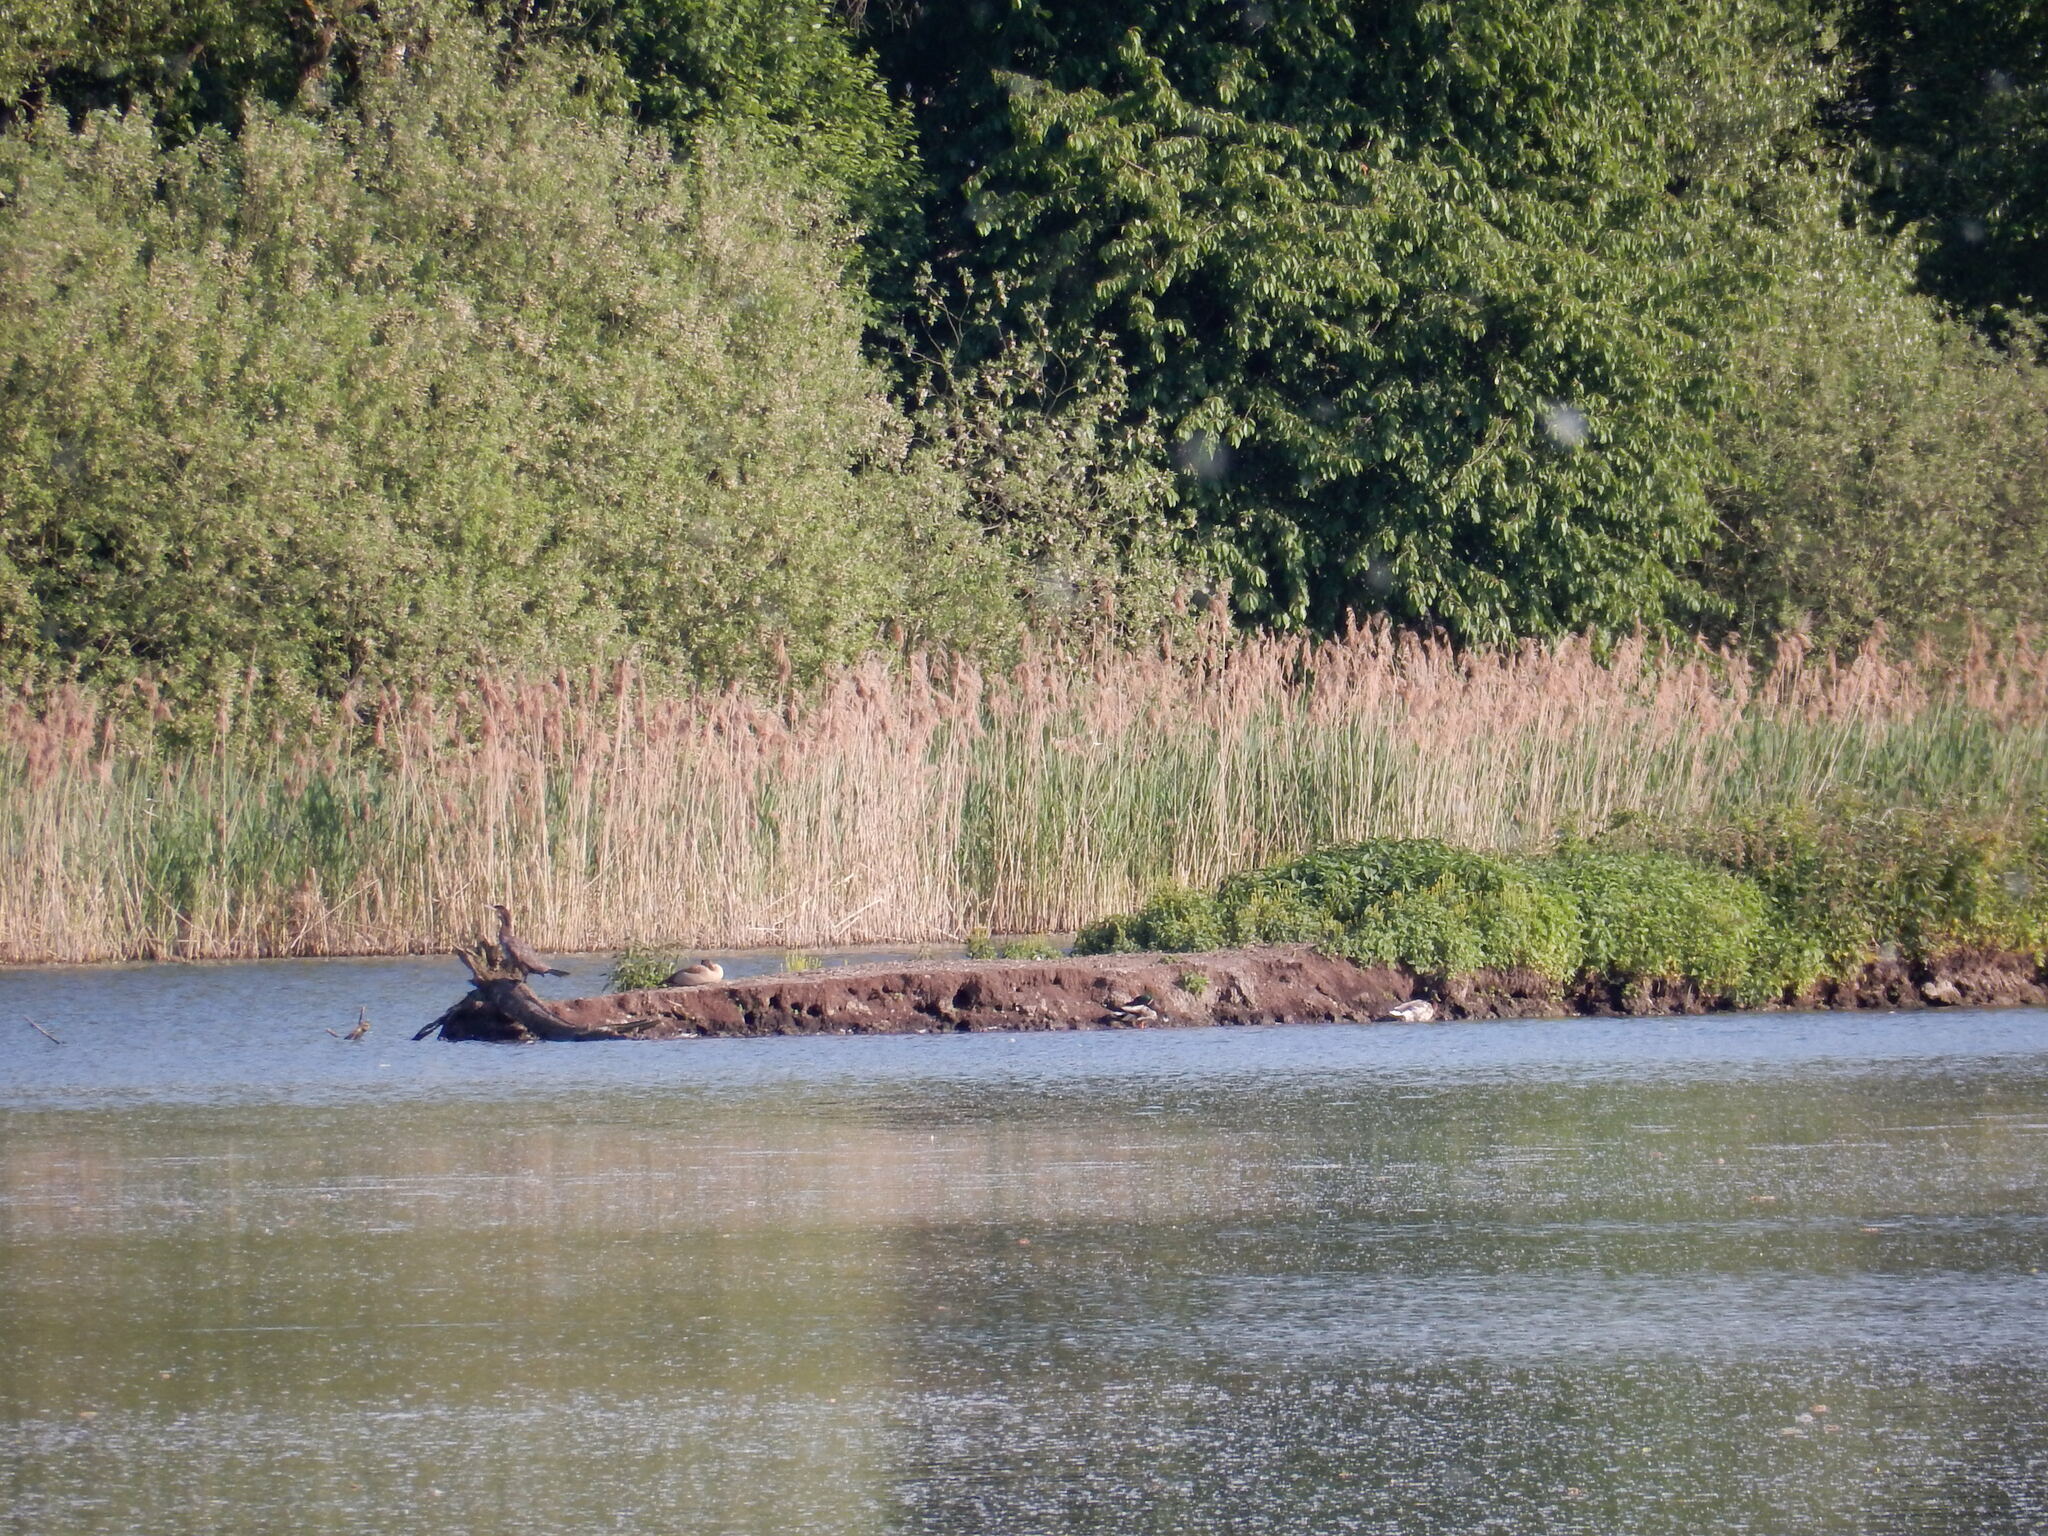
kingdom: Animalia
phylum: Chordata
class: Aves
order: Anseriformes
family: Anatidae
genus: Alopochen
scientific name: Alopochen aegyptiaca
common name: Egyptian goose
